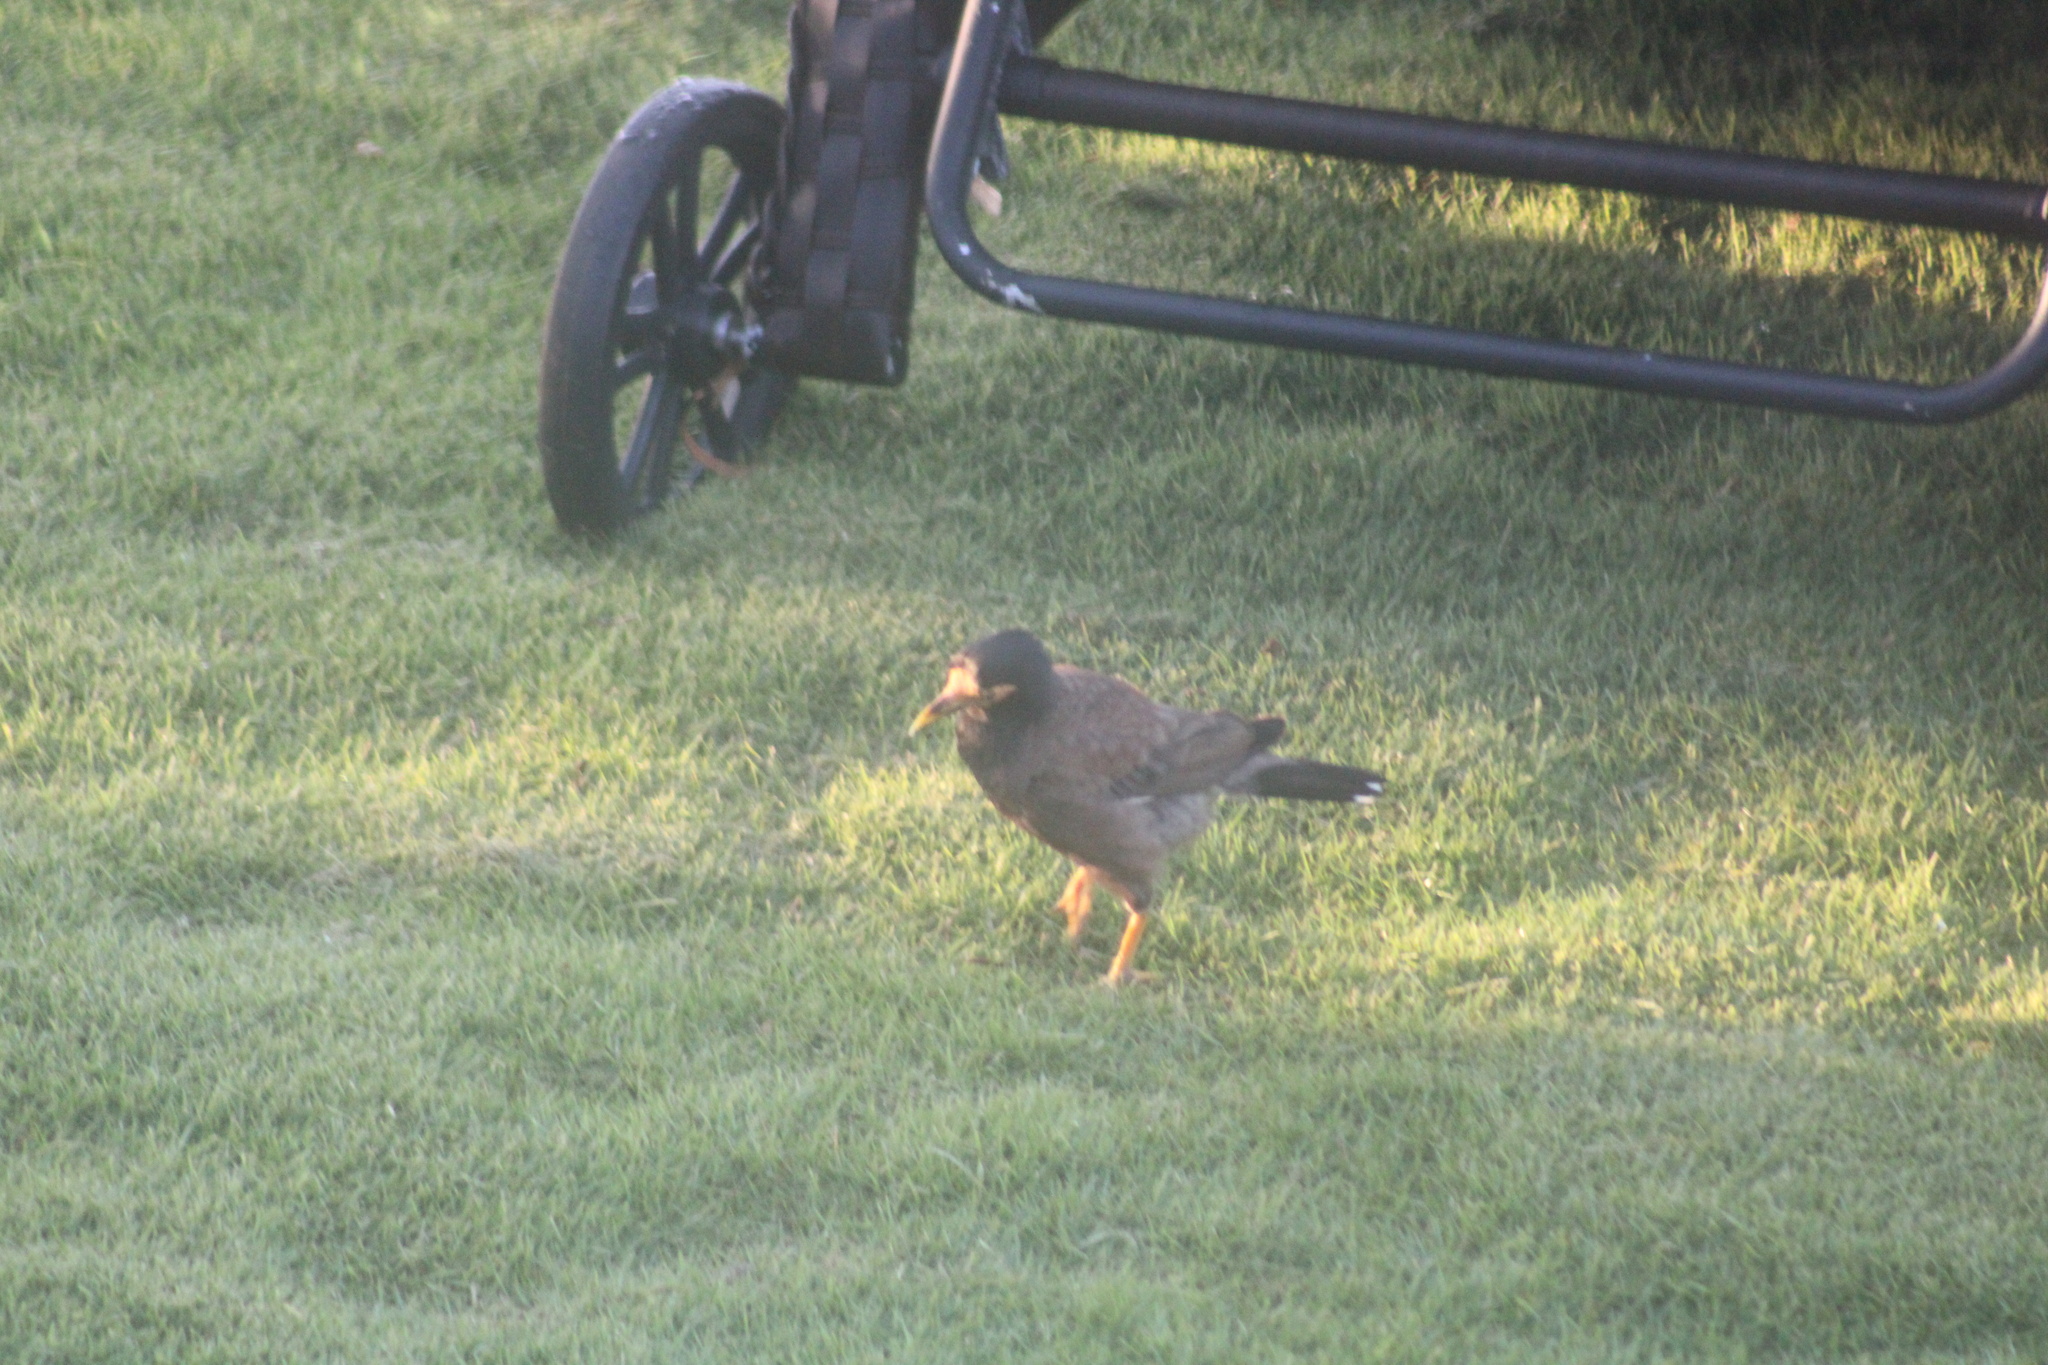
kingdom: Animalia
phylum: Chordata
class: Aves
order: Passeriformes
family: Sturnidae
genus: Acridotheres
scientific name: Acridotheres tristis
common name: Common myna
